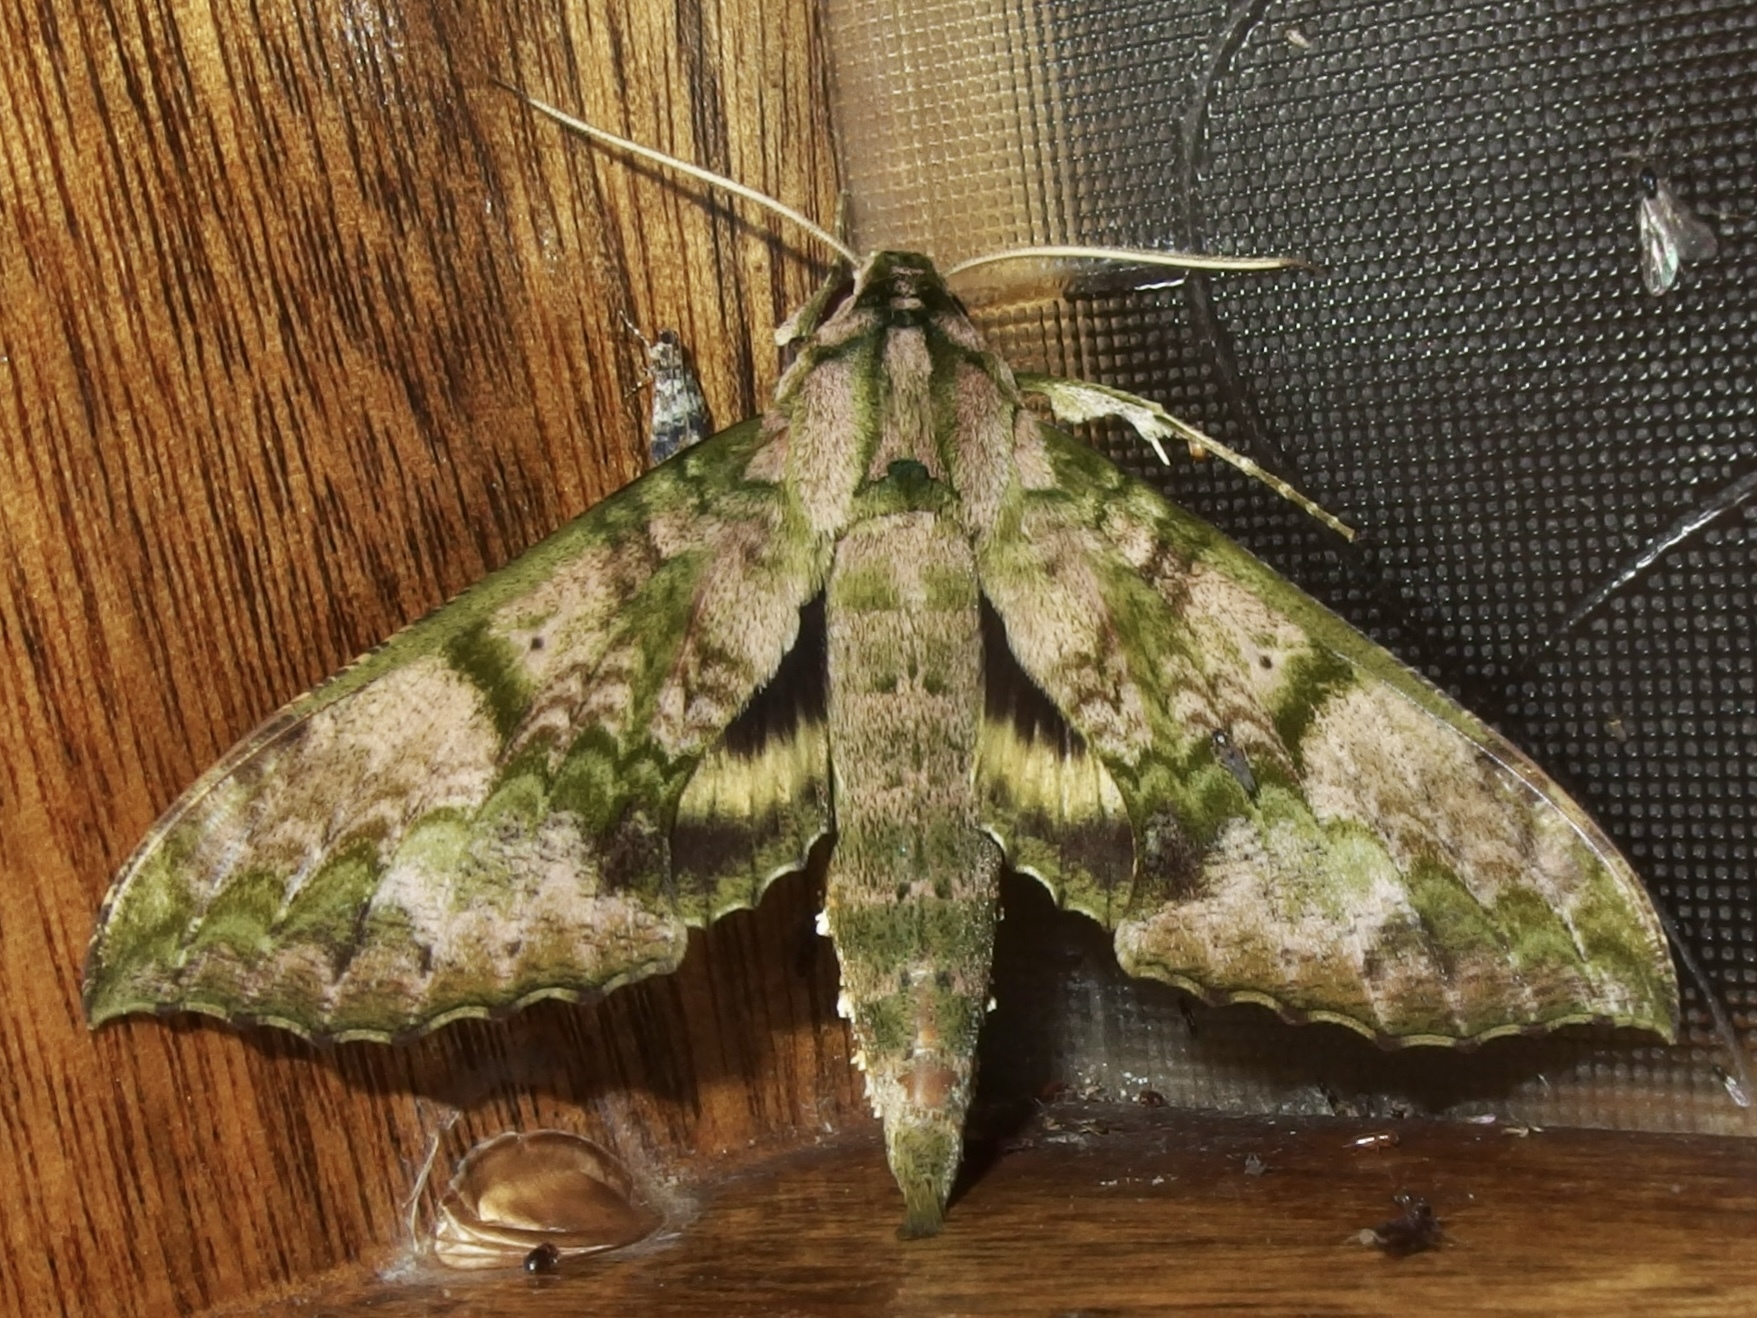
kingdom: Animalia
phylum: Arthropoda
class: Insecta
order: Lepidoptera
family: Sphingidae
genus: Xylophanes
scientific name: Xylophanes zurcheri
